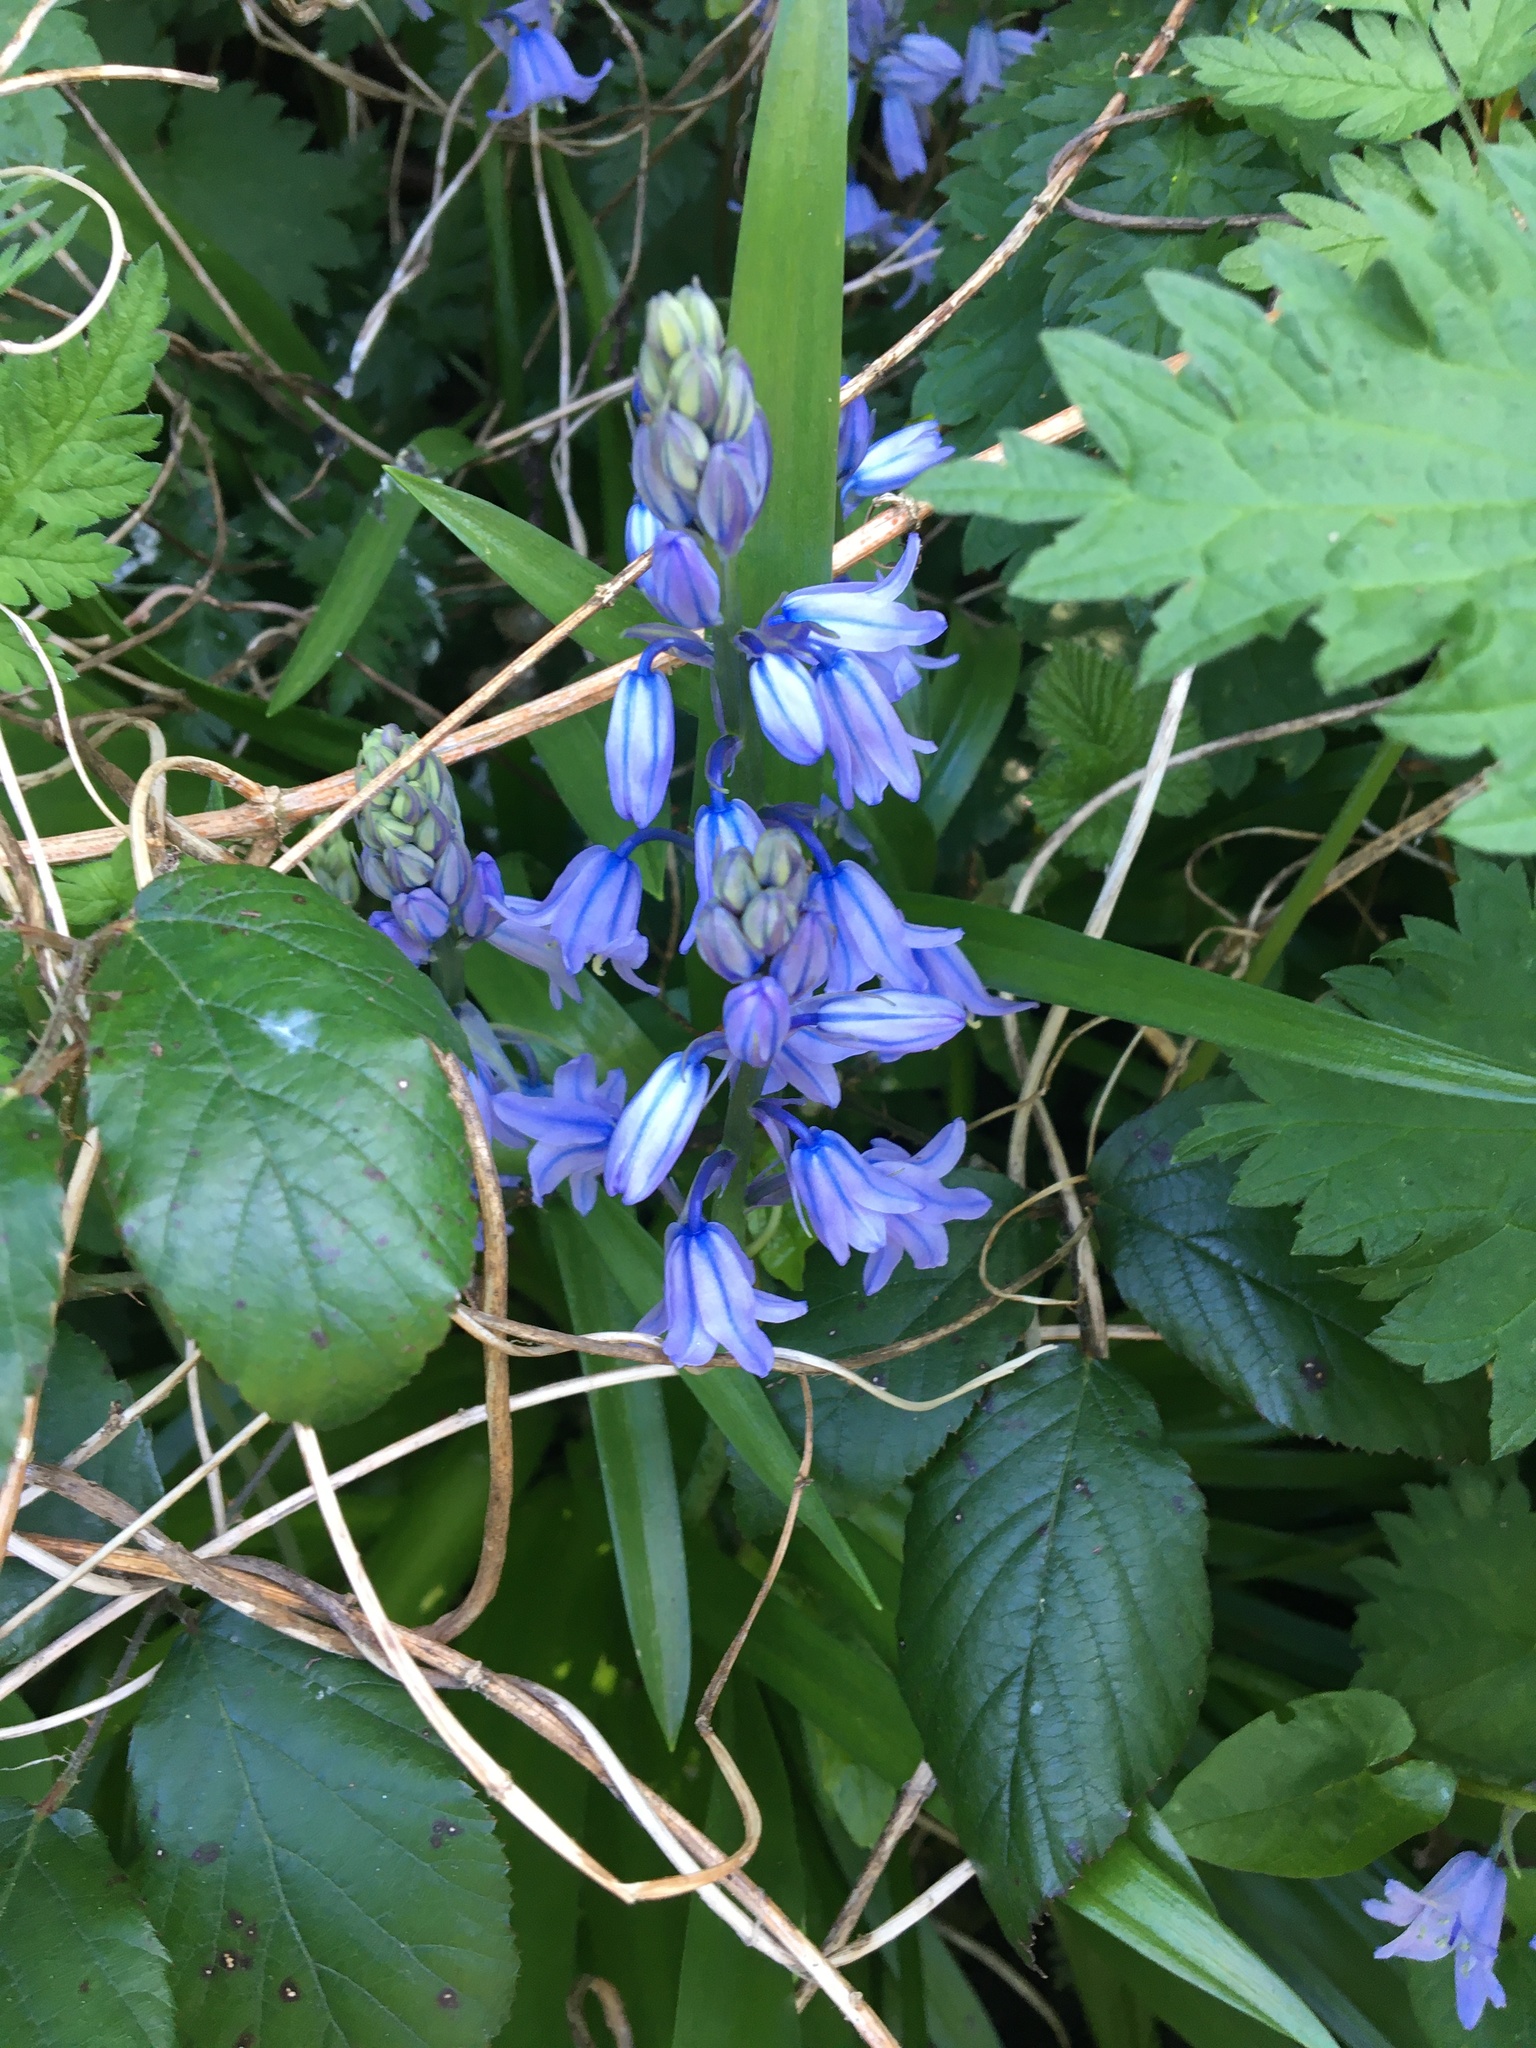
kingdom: Plantae
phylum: Tracheophyta
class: Liliopsida
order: Asparagales
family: Asparagaceae
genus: Hyacinthoides
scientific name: Hyacinthoides hispanica
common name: Spanish bluebell
